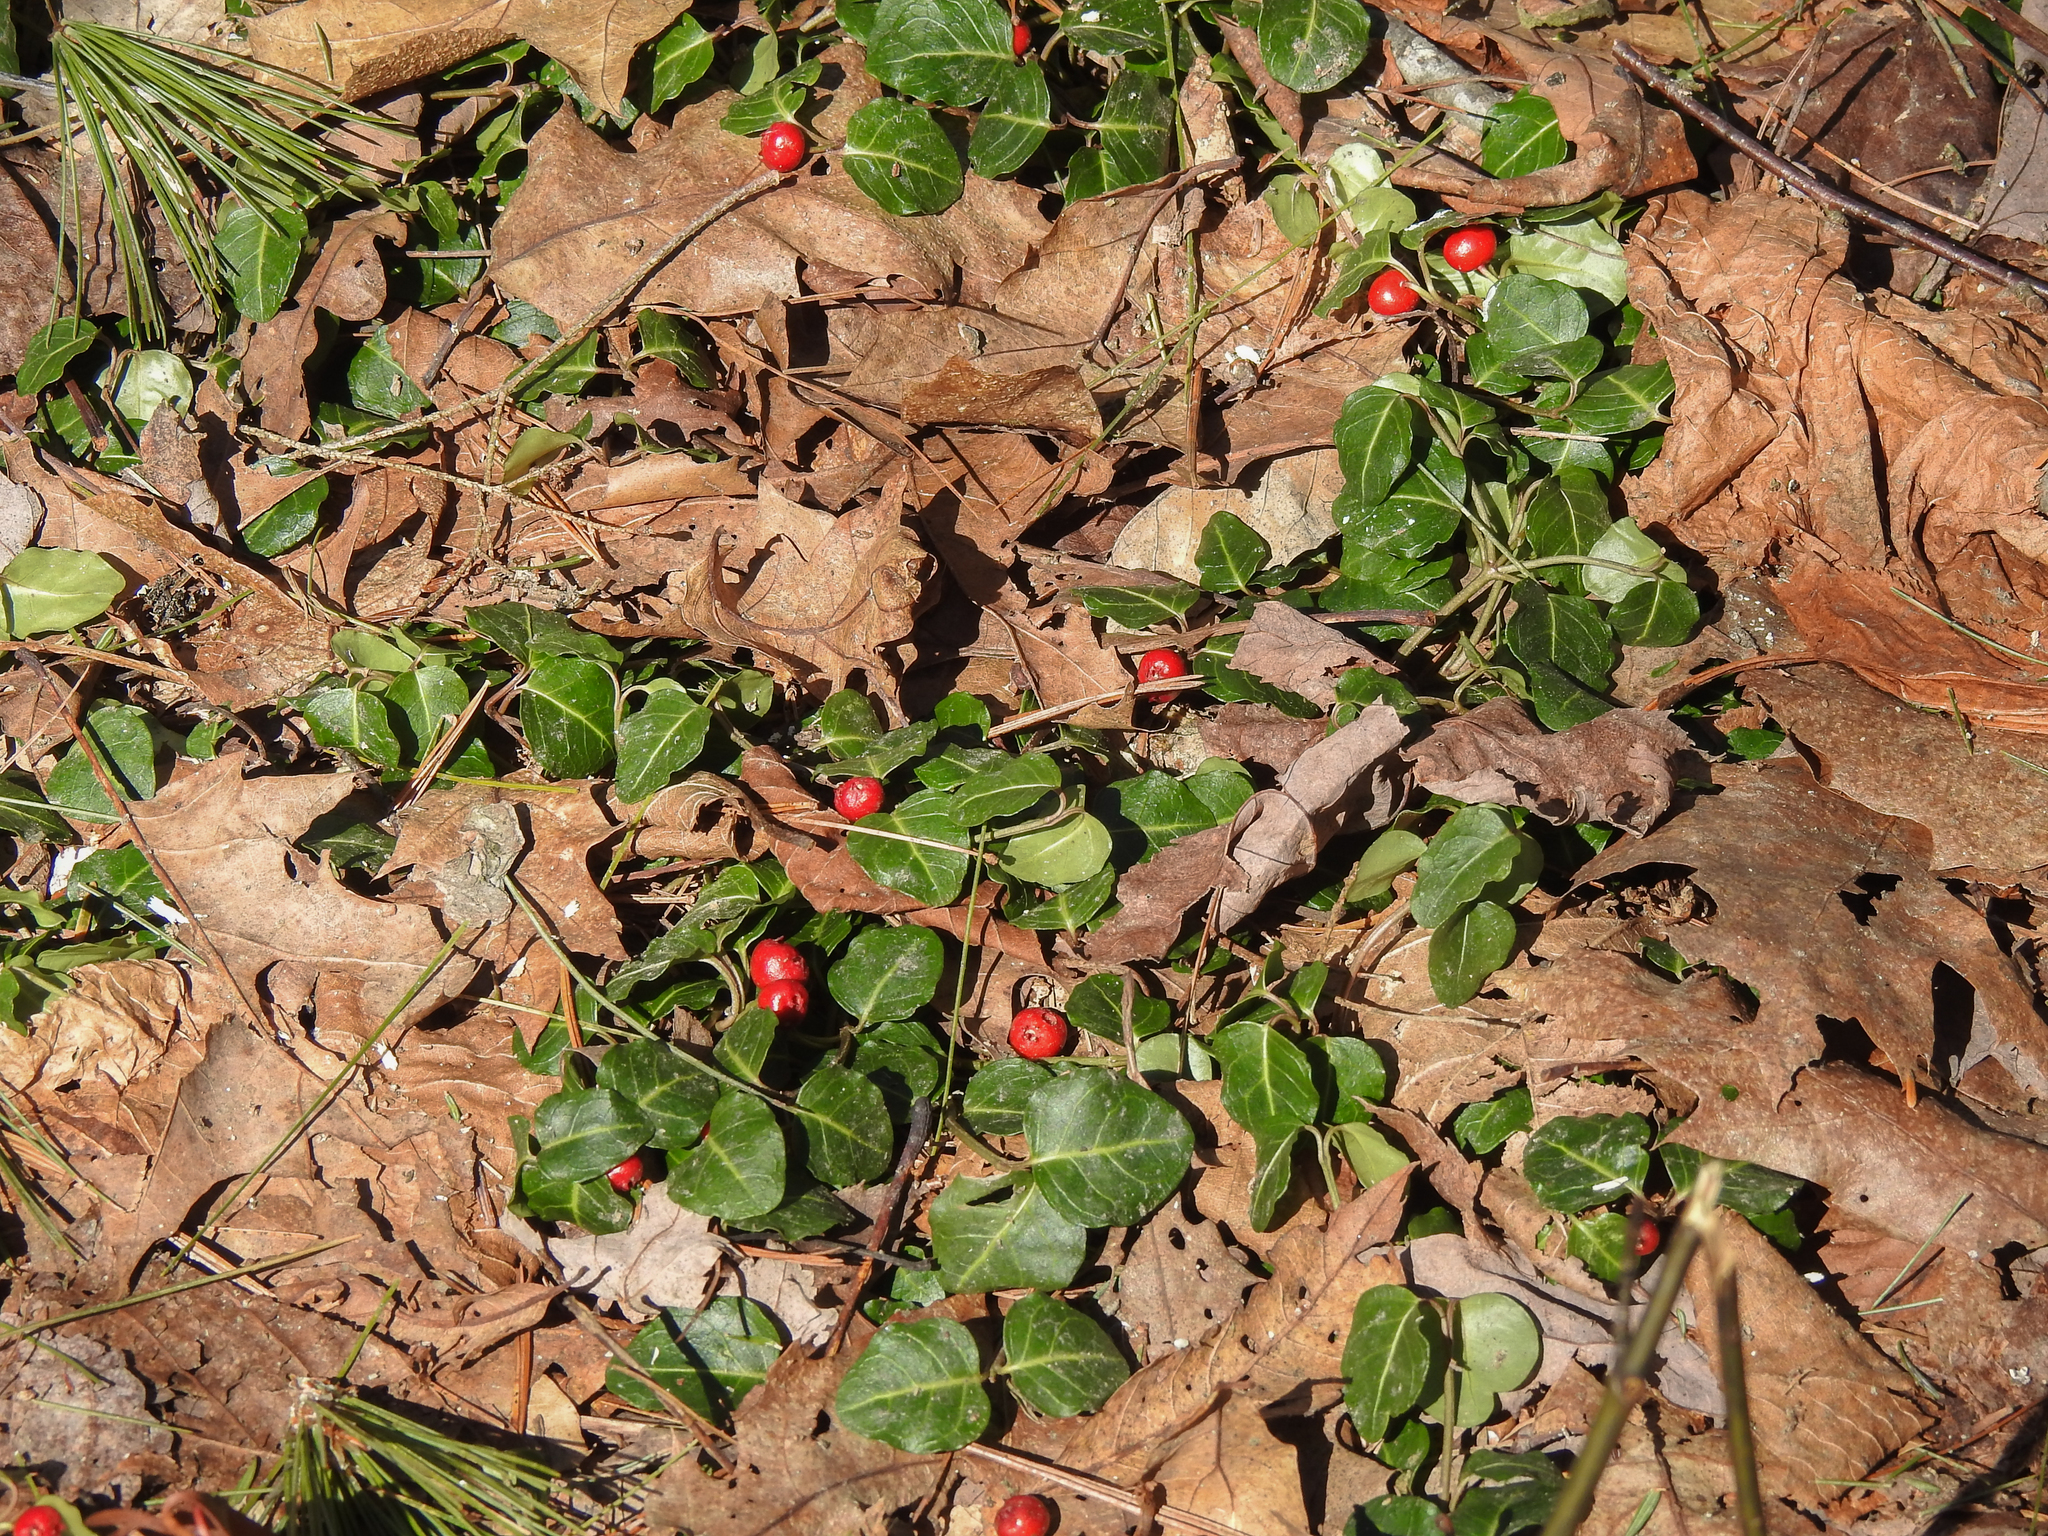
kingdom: Plantae
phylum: Tracheophyta
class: Magnoliopsida
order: Gentianales
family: Rubiaceae
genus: Mitchella
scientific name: Mitchella repens
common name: Partridge-berry
